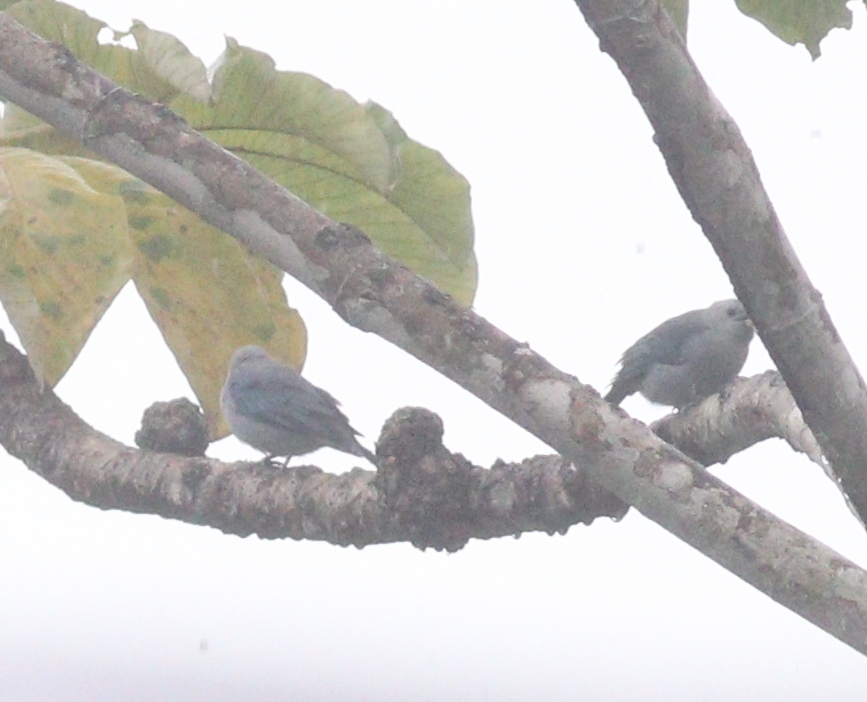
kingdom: Animalia
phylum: Chordata
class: Aves
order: Passeriformes
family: Thraupidae
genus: Thraupis
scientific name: Thraupis episcopus
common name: Blue-grey tanager
